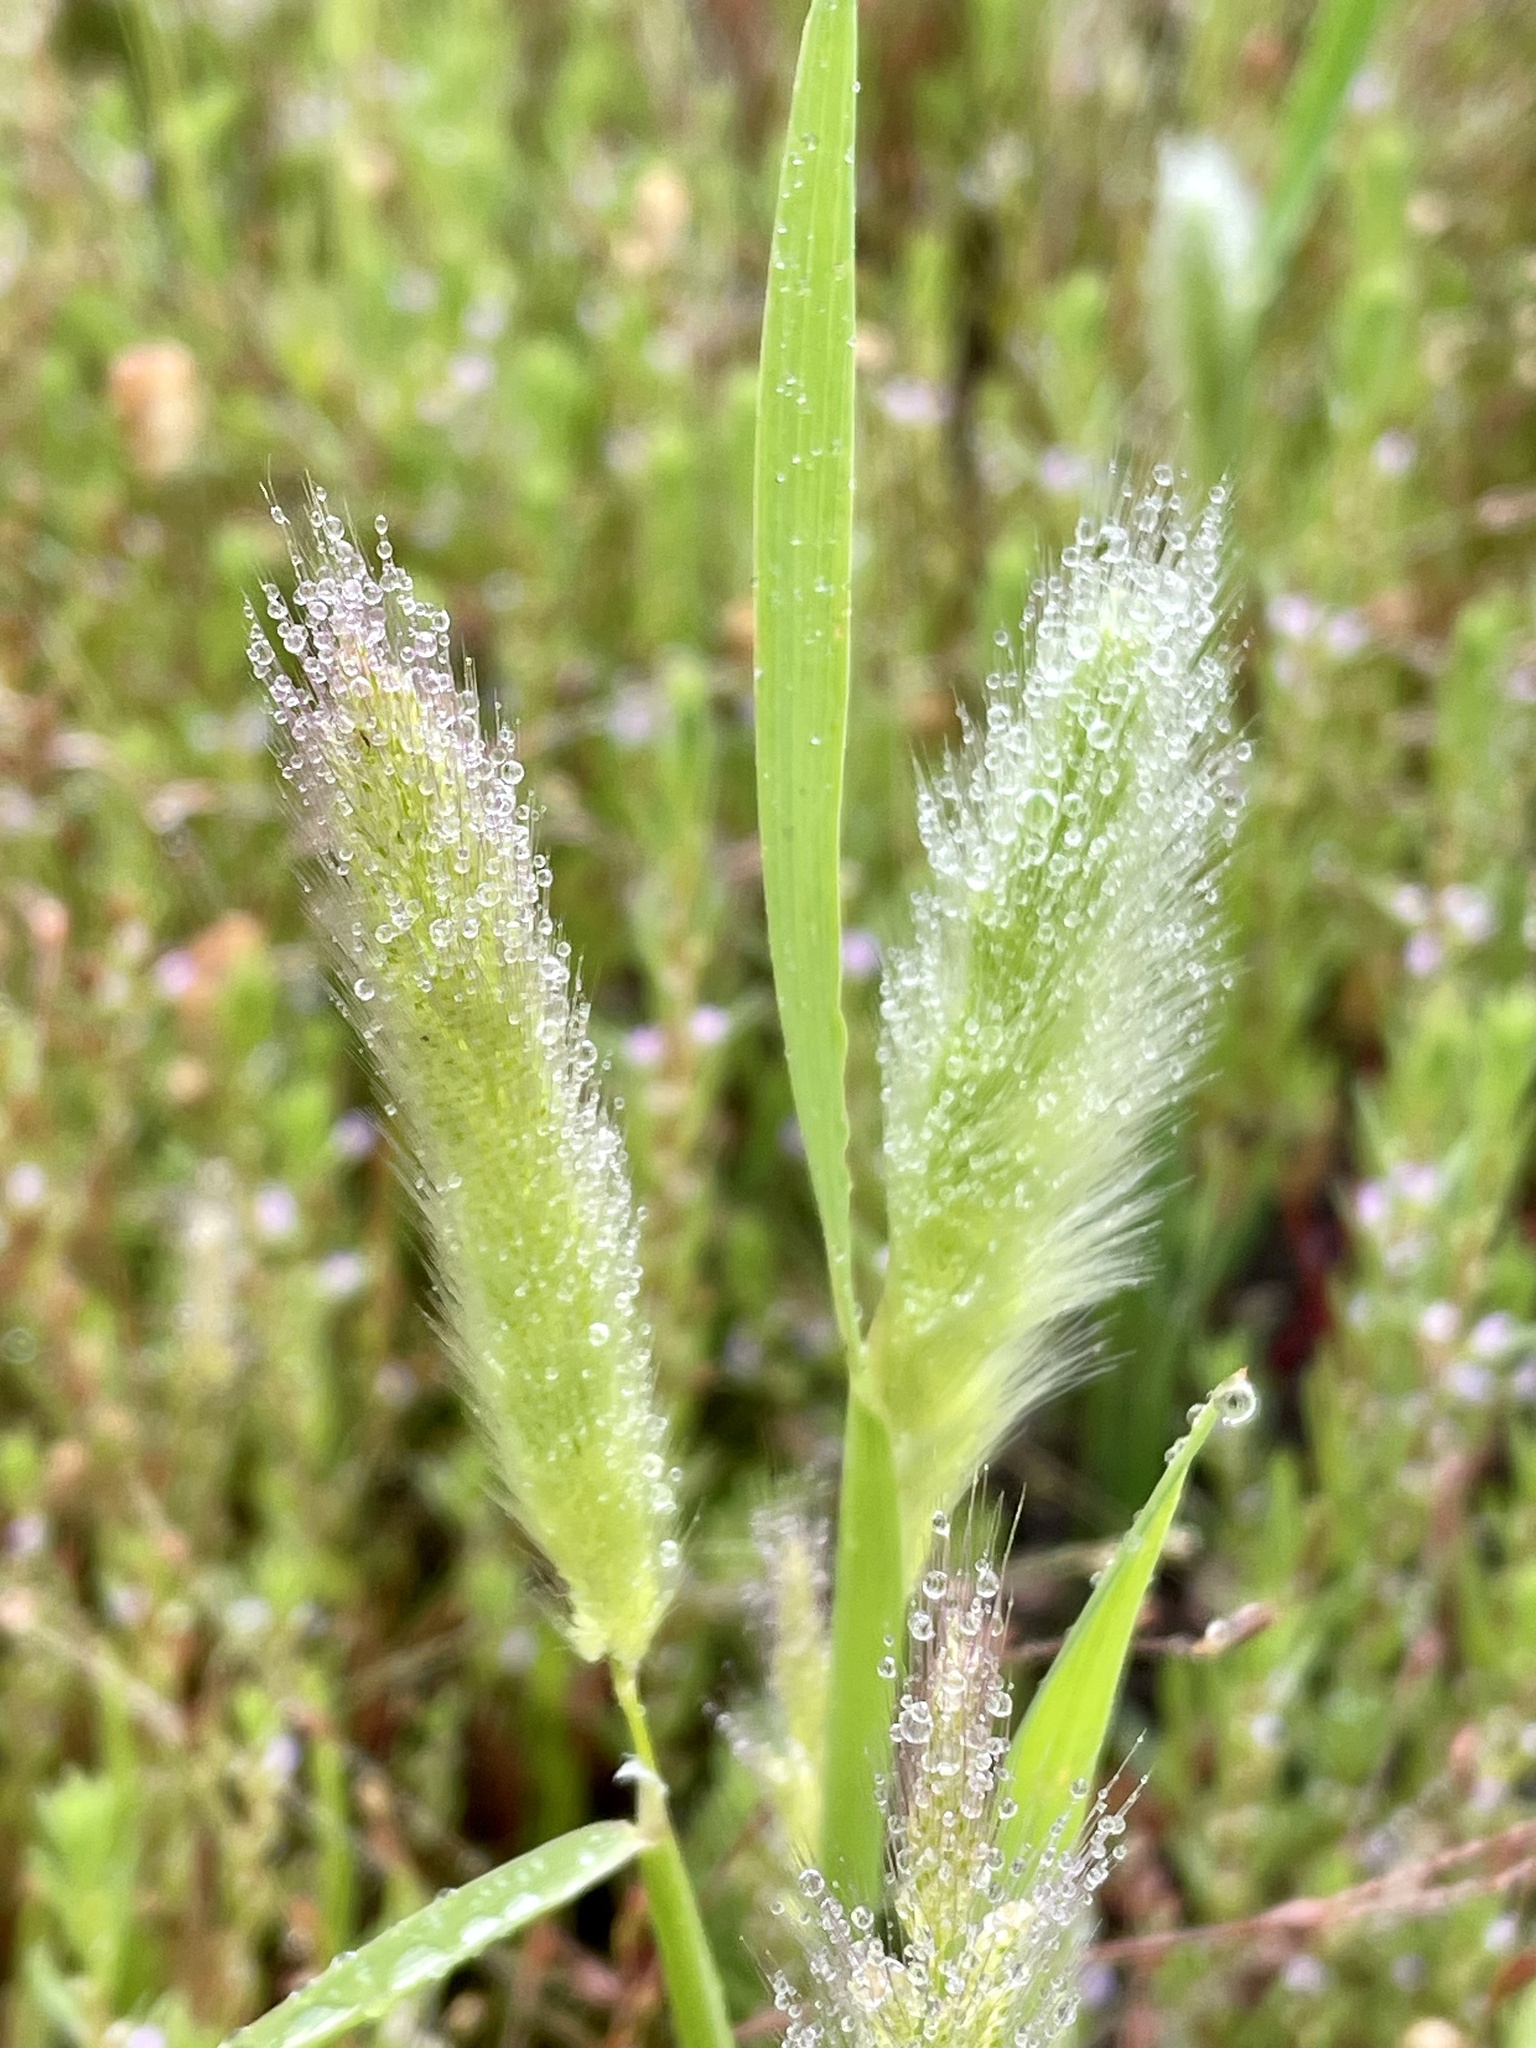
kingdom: Plantae
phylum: Tracheophyta
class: Liliopsida
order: Poales
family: Poaceae
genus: Polypogon
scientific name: Polypogon monspeliensis
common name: Annual rabbitsfoot grass
